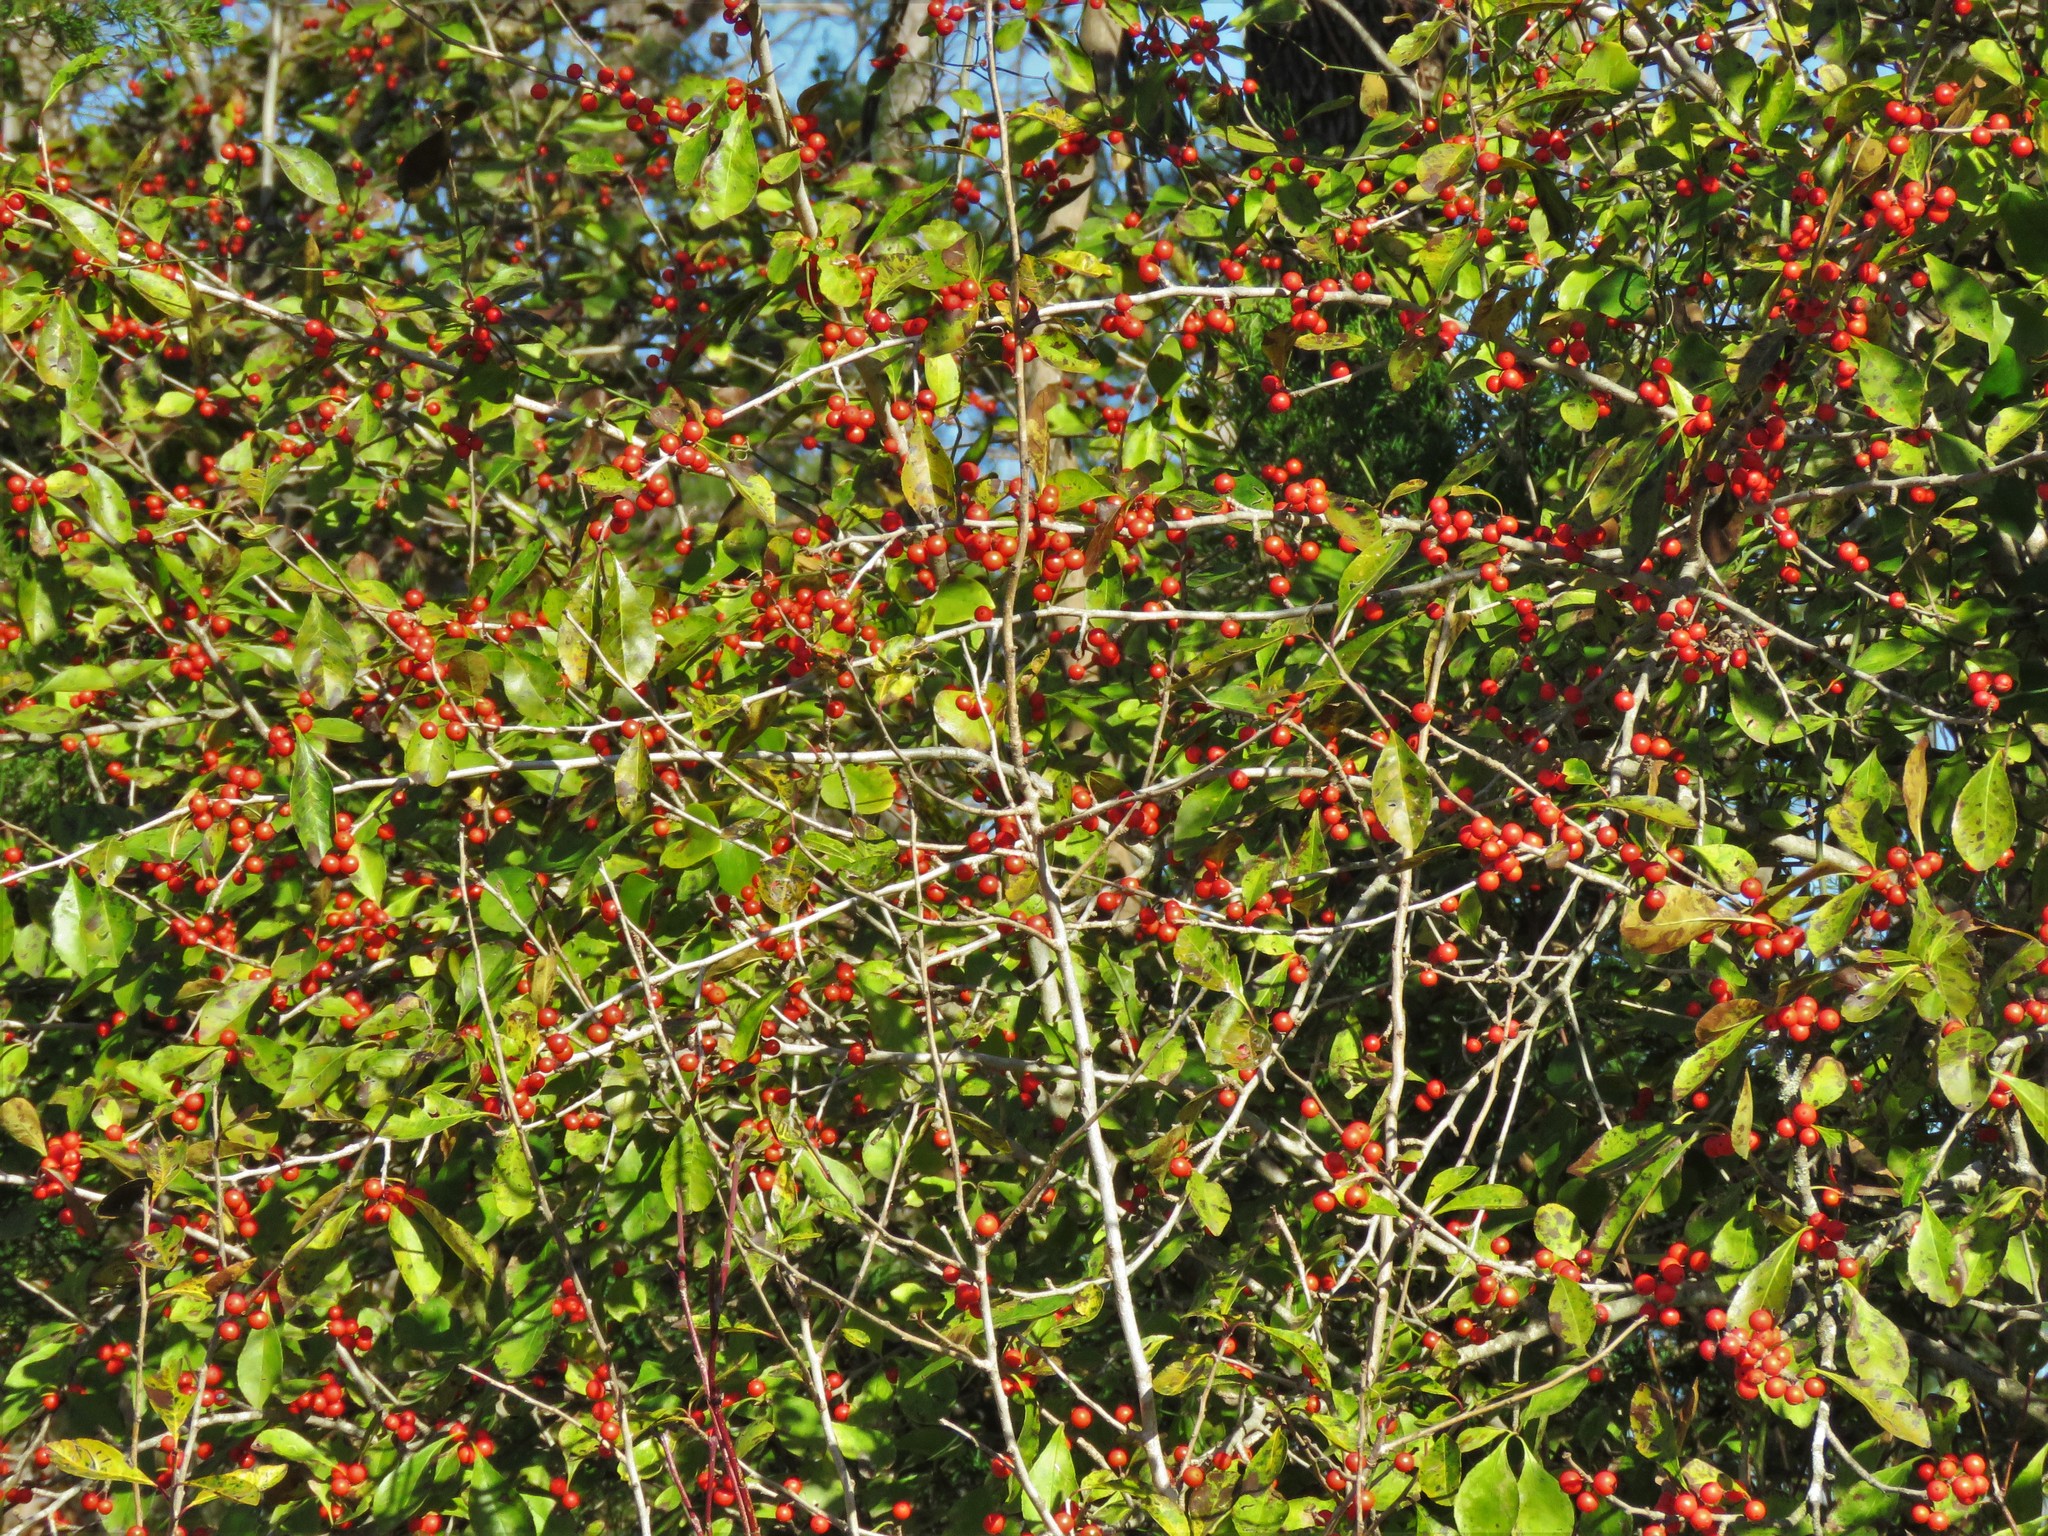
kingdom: Plantae
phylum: Tracheophyta
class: Magnoliopsida
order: Aquifoliales
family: Aquifoliaceae
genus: Ilex
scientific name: Ilex decidua
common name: Possum-haw
